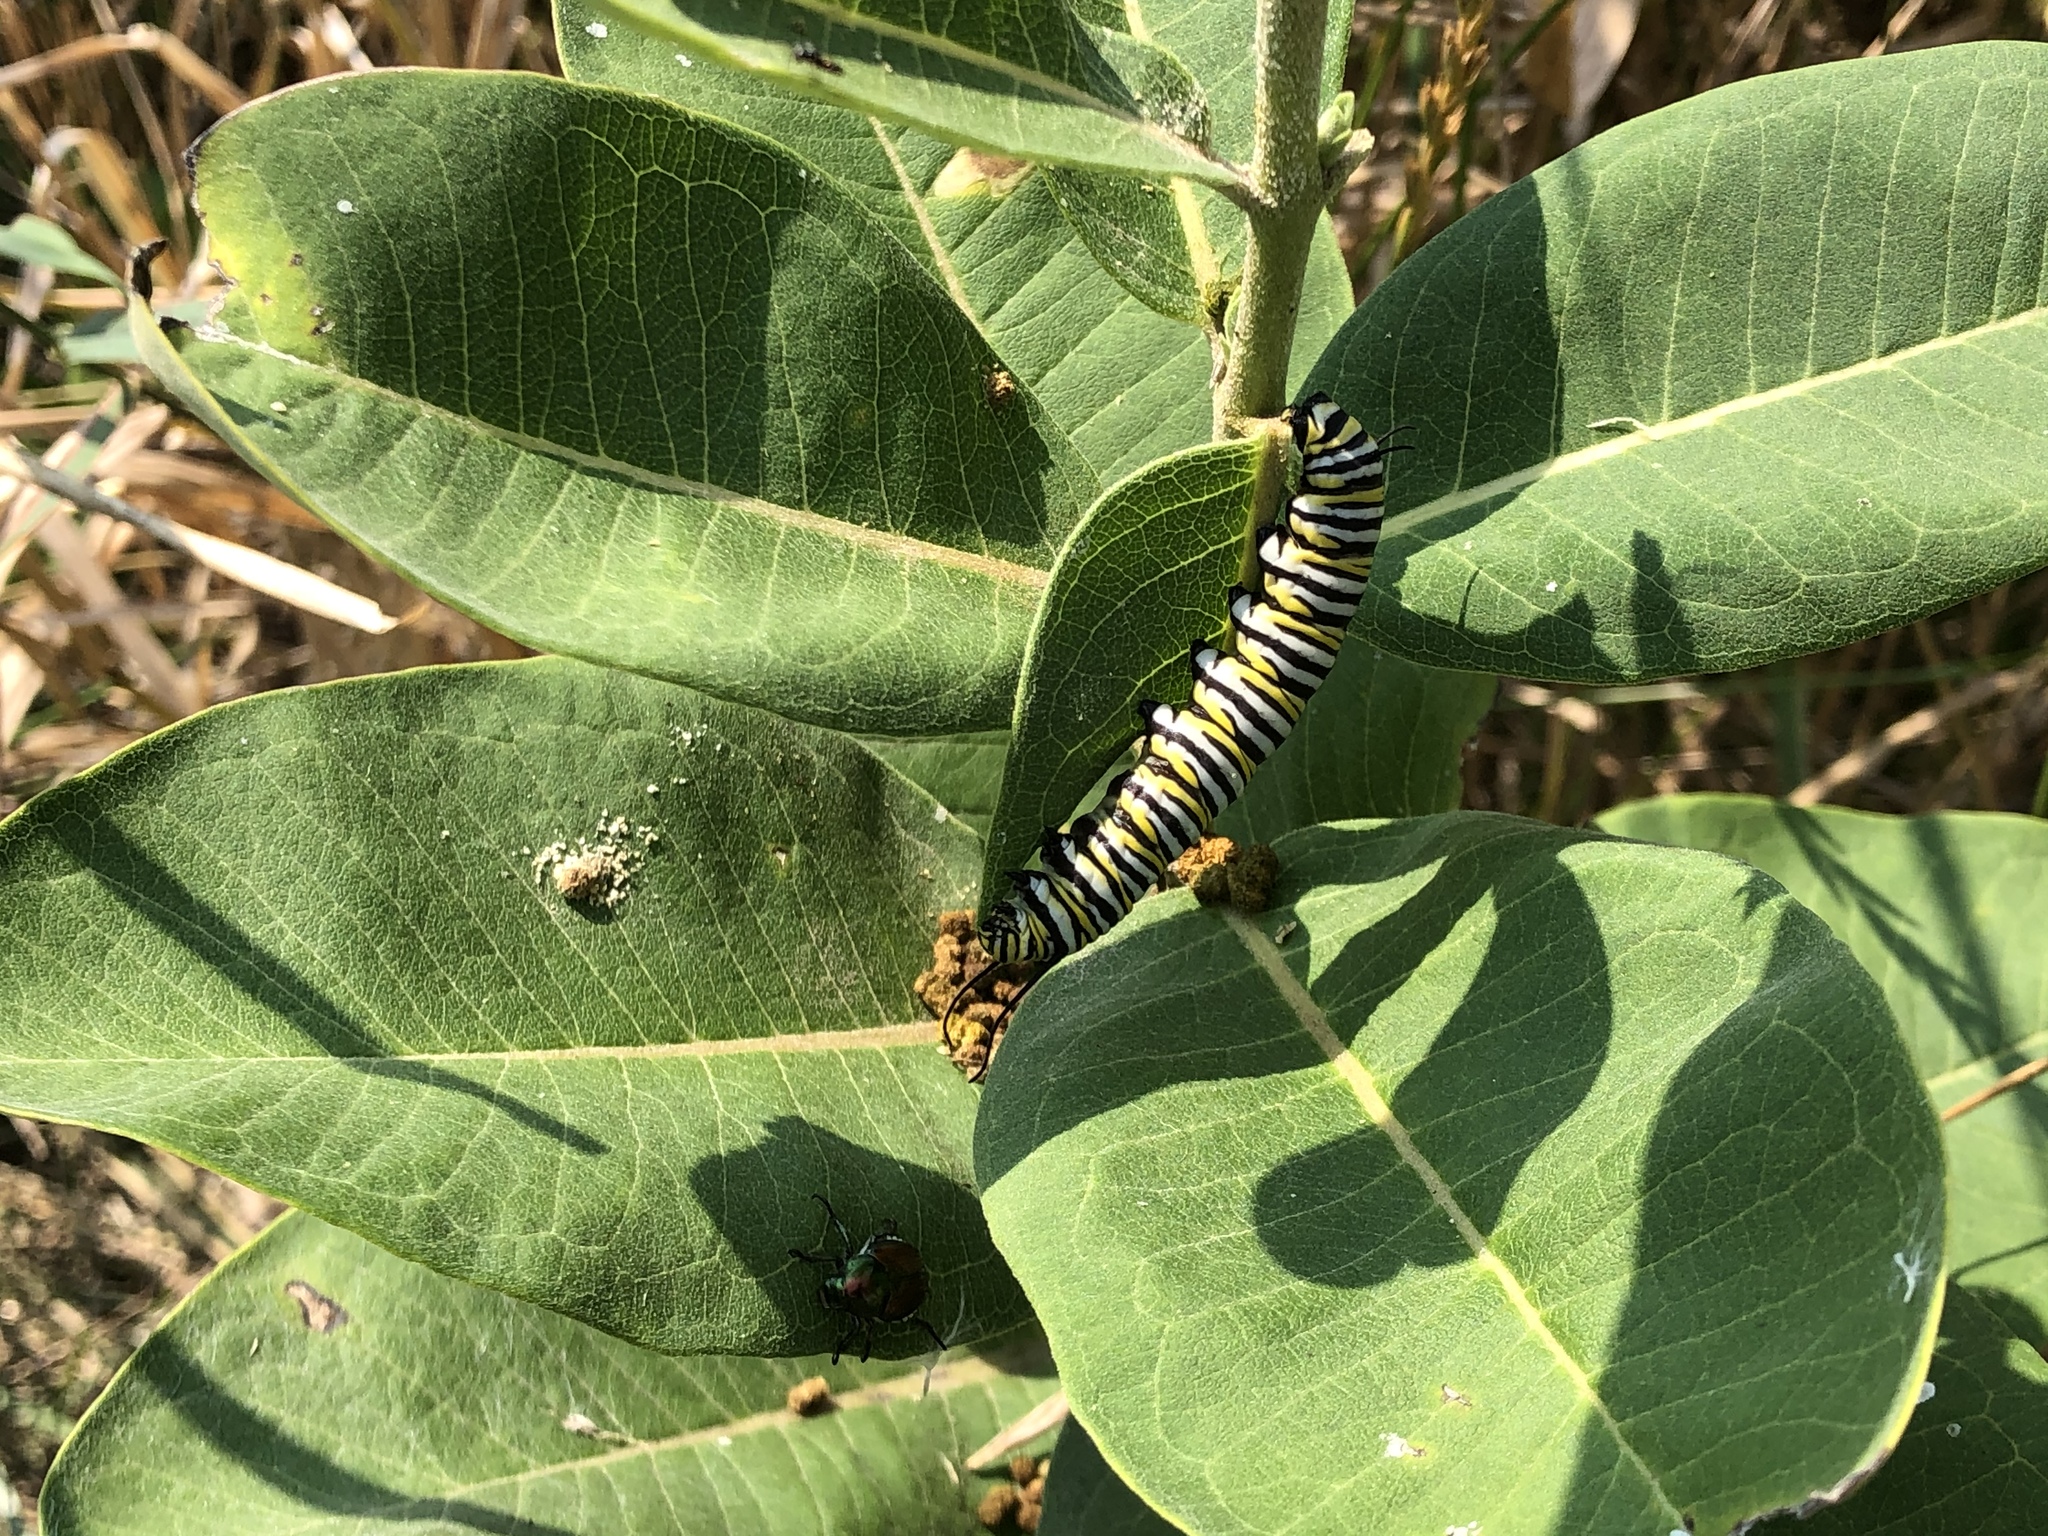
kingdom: Animalia
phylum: Arthropoda
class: Insecta
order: Lepidoptera
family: Nymphalidae
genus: Danaus
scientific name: Danaus plexippus
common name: Monarch
